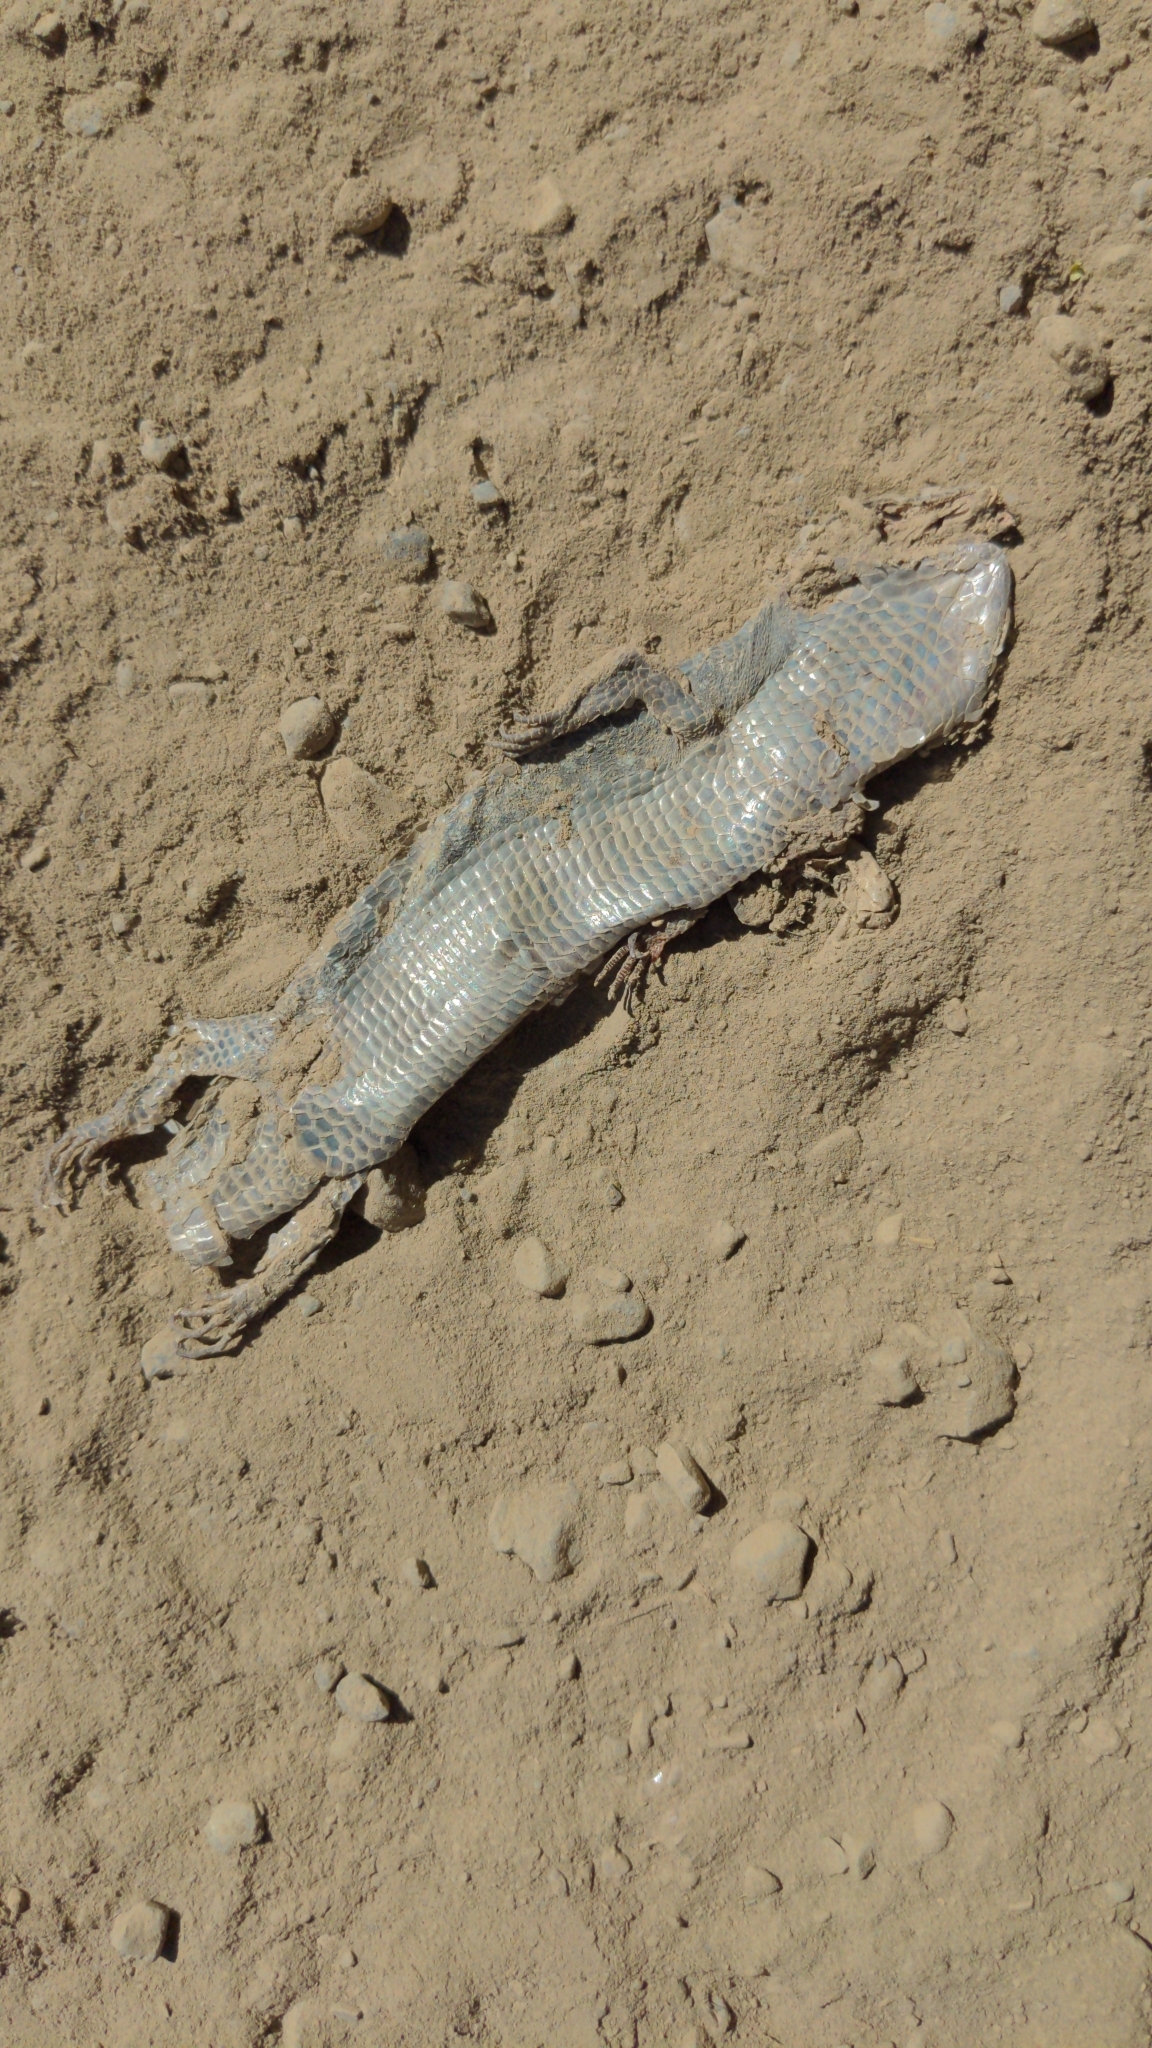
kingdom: Animalia
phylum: Chordata
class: Squamata
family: Anguidae
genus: Elgaria
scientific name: Elgaria multicarinata
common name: Southern alligator lizard
